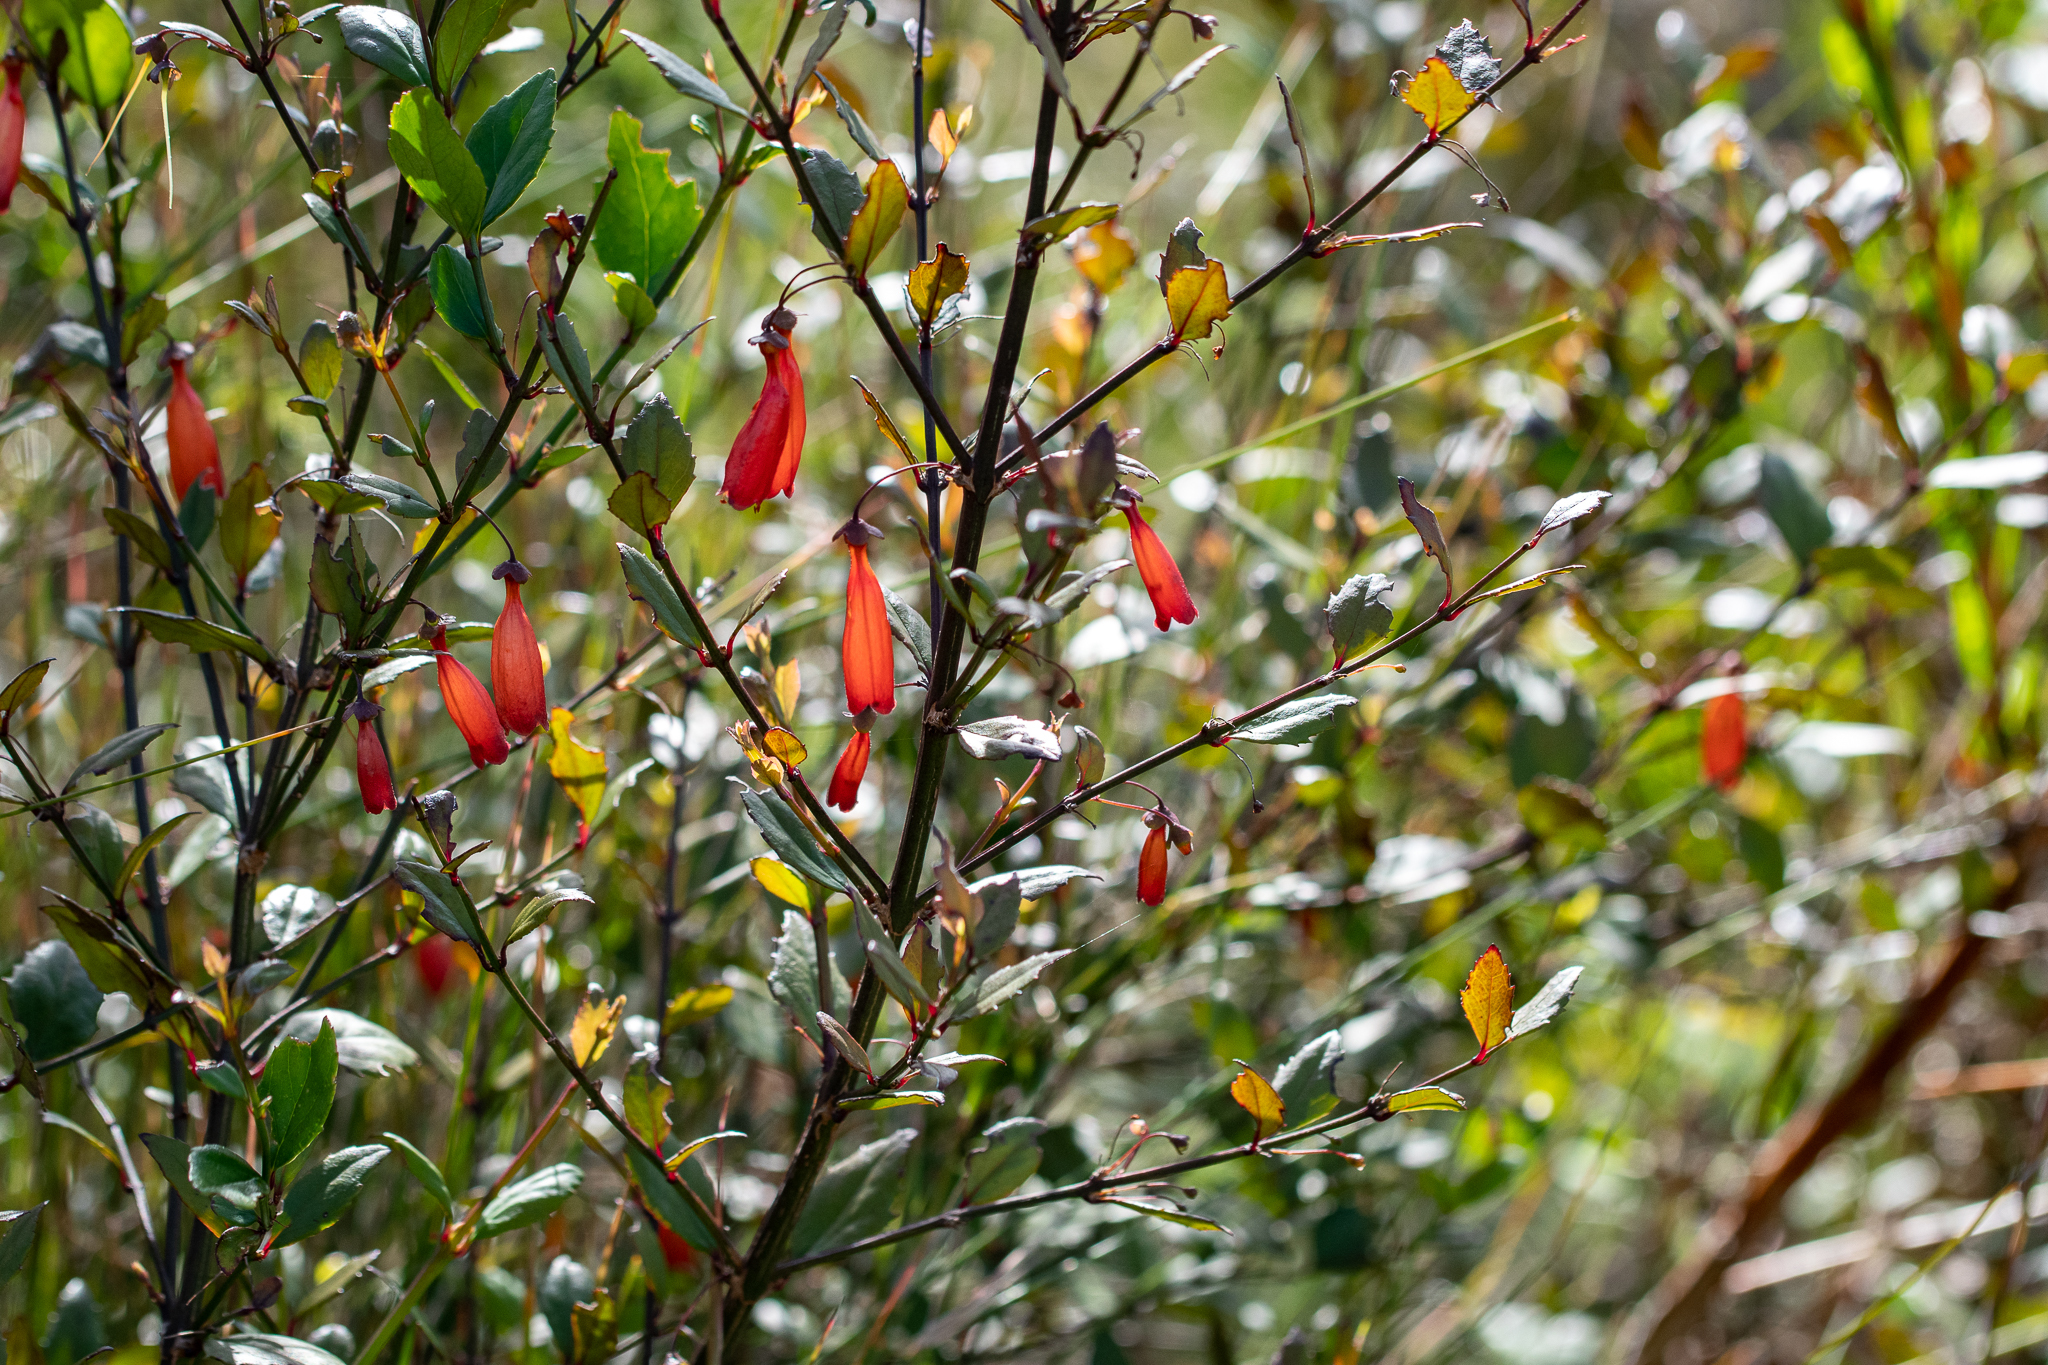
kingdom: Plantae
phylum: Tracheophyta
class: Magnoliopsida
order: Lamiales
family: Stilbaceae
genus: Halleria
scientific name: Halleria elliptica
